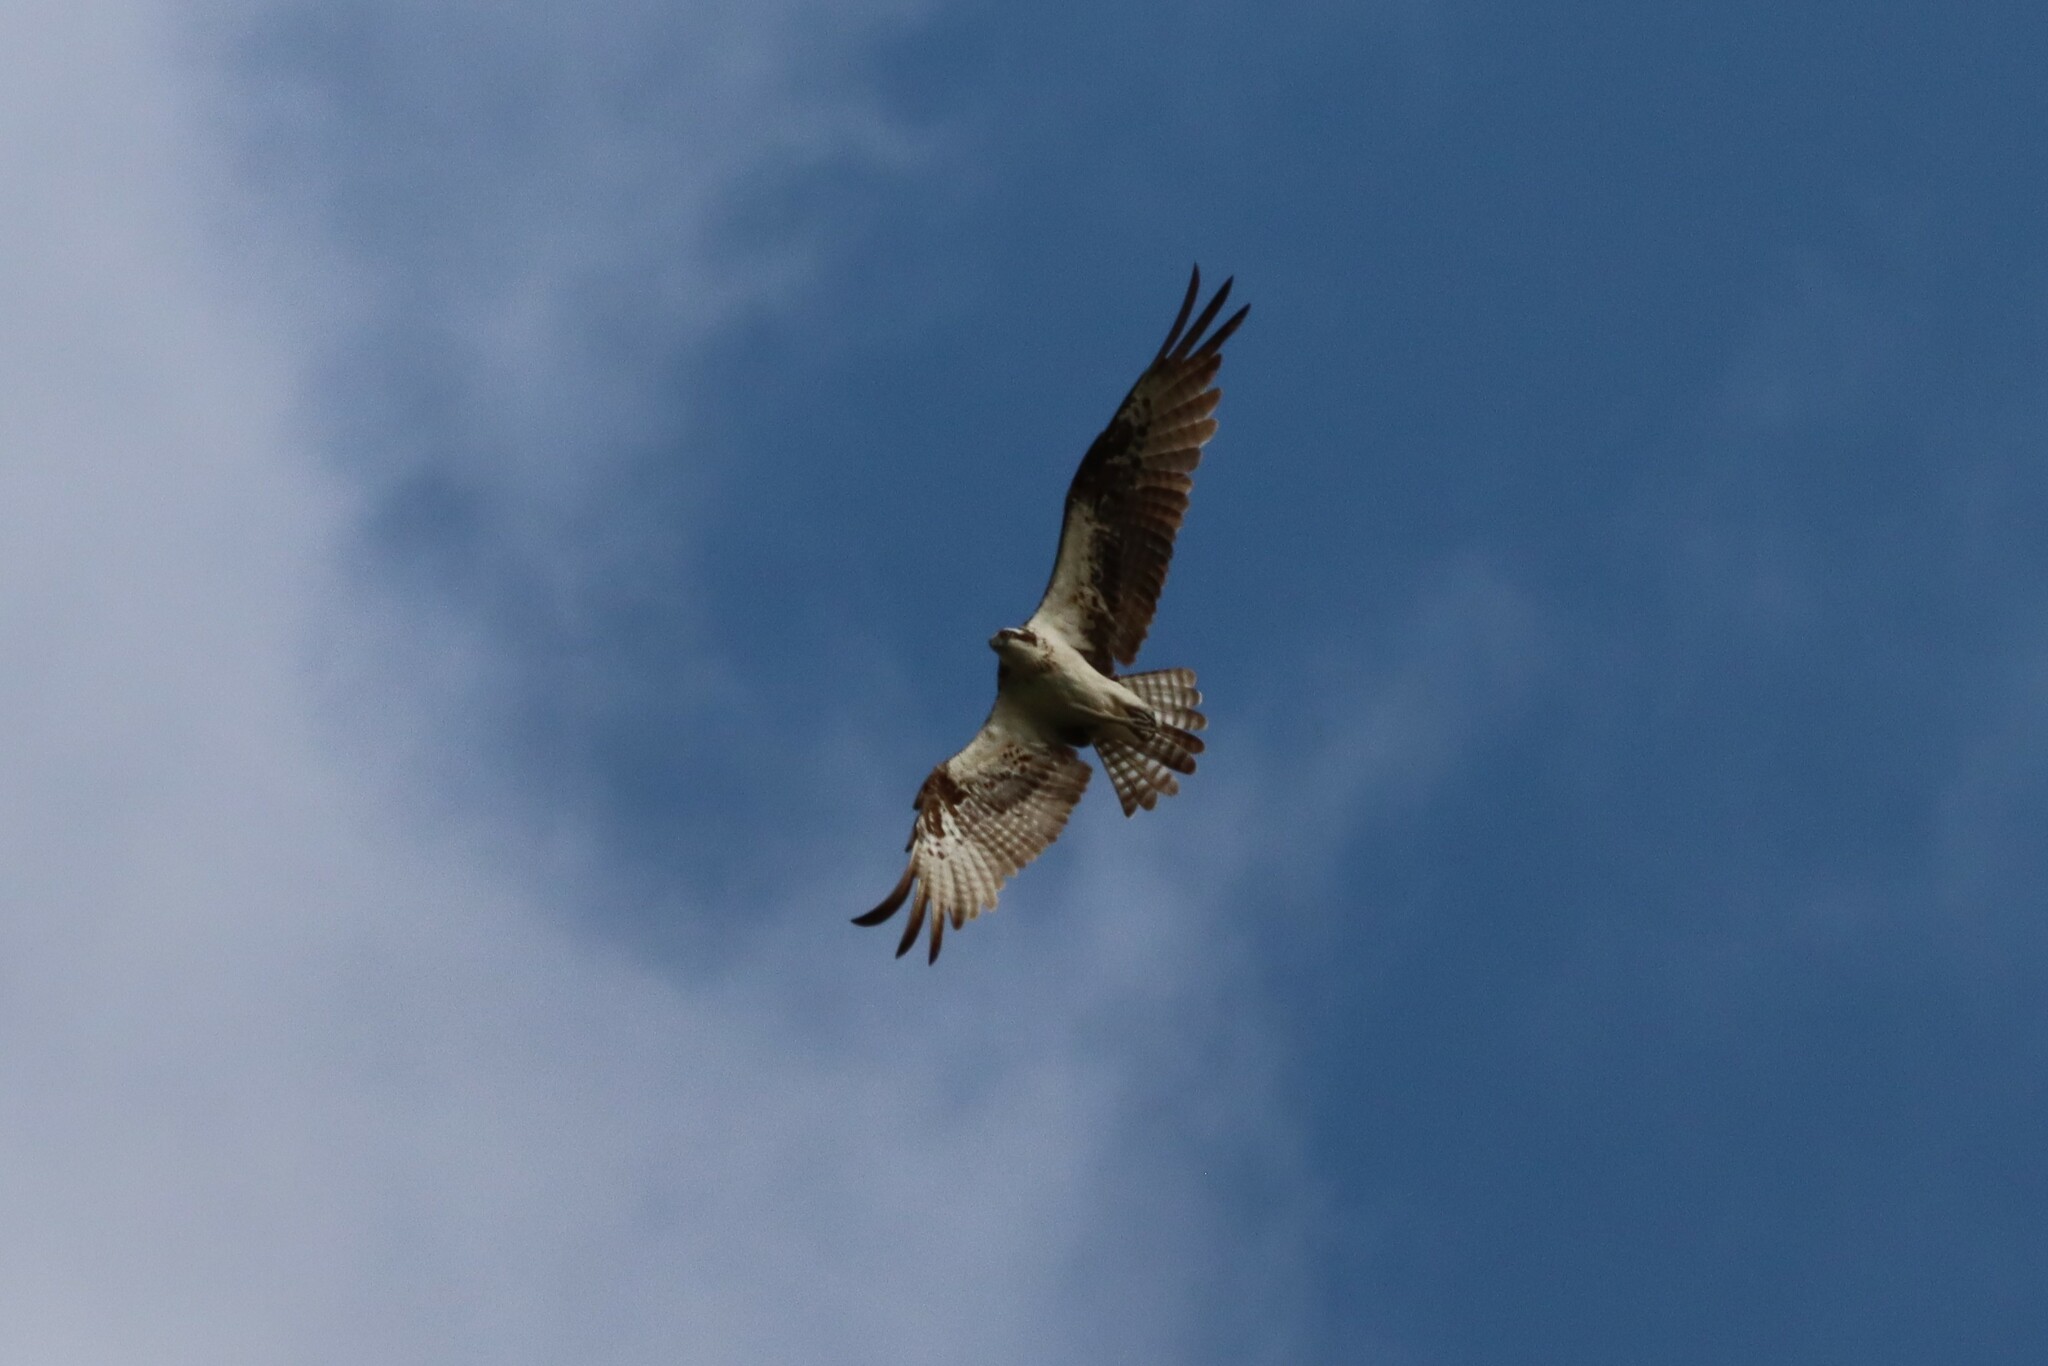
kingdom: Animalia
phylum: Chordata
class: Aves
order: Accipitriformes
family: Pandionidae
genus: Pandion
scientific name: Pandion haliaetus
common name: Osprey
